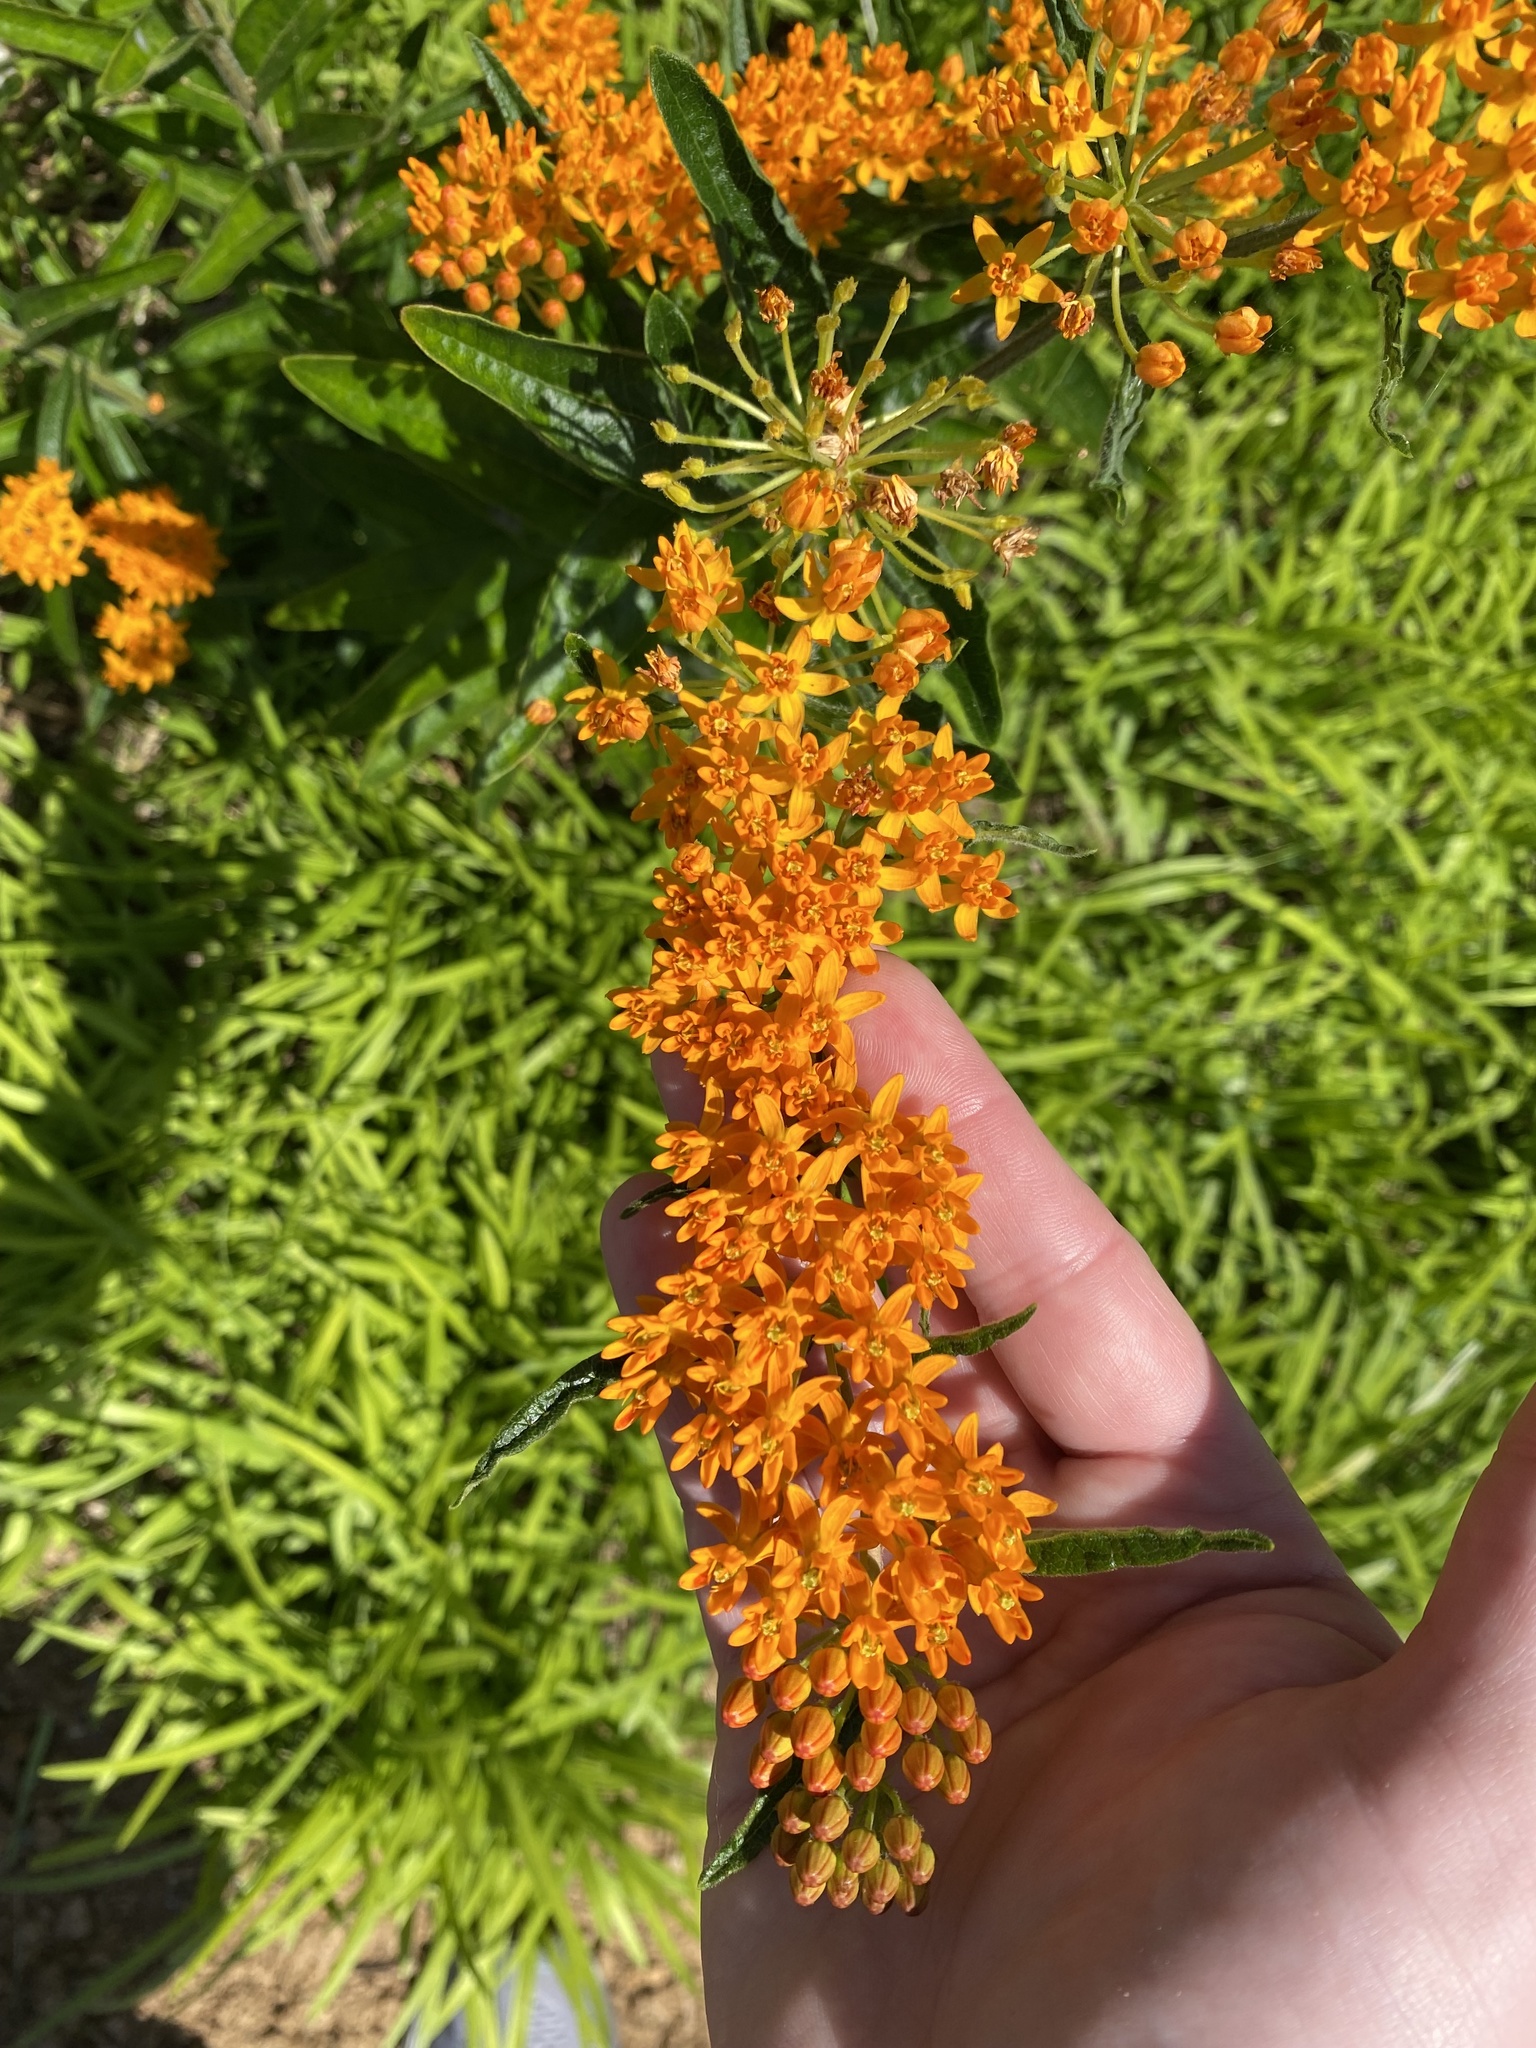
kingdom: Plantae
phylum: Tracheophyta
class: Magnoliopsida
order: Gentianales
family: Apocynaceae
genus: Asclepias
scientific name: Asclepias tuberosa
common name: Butterfly milkweed
